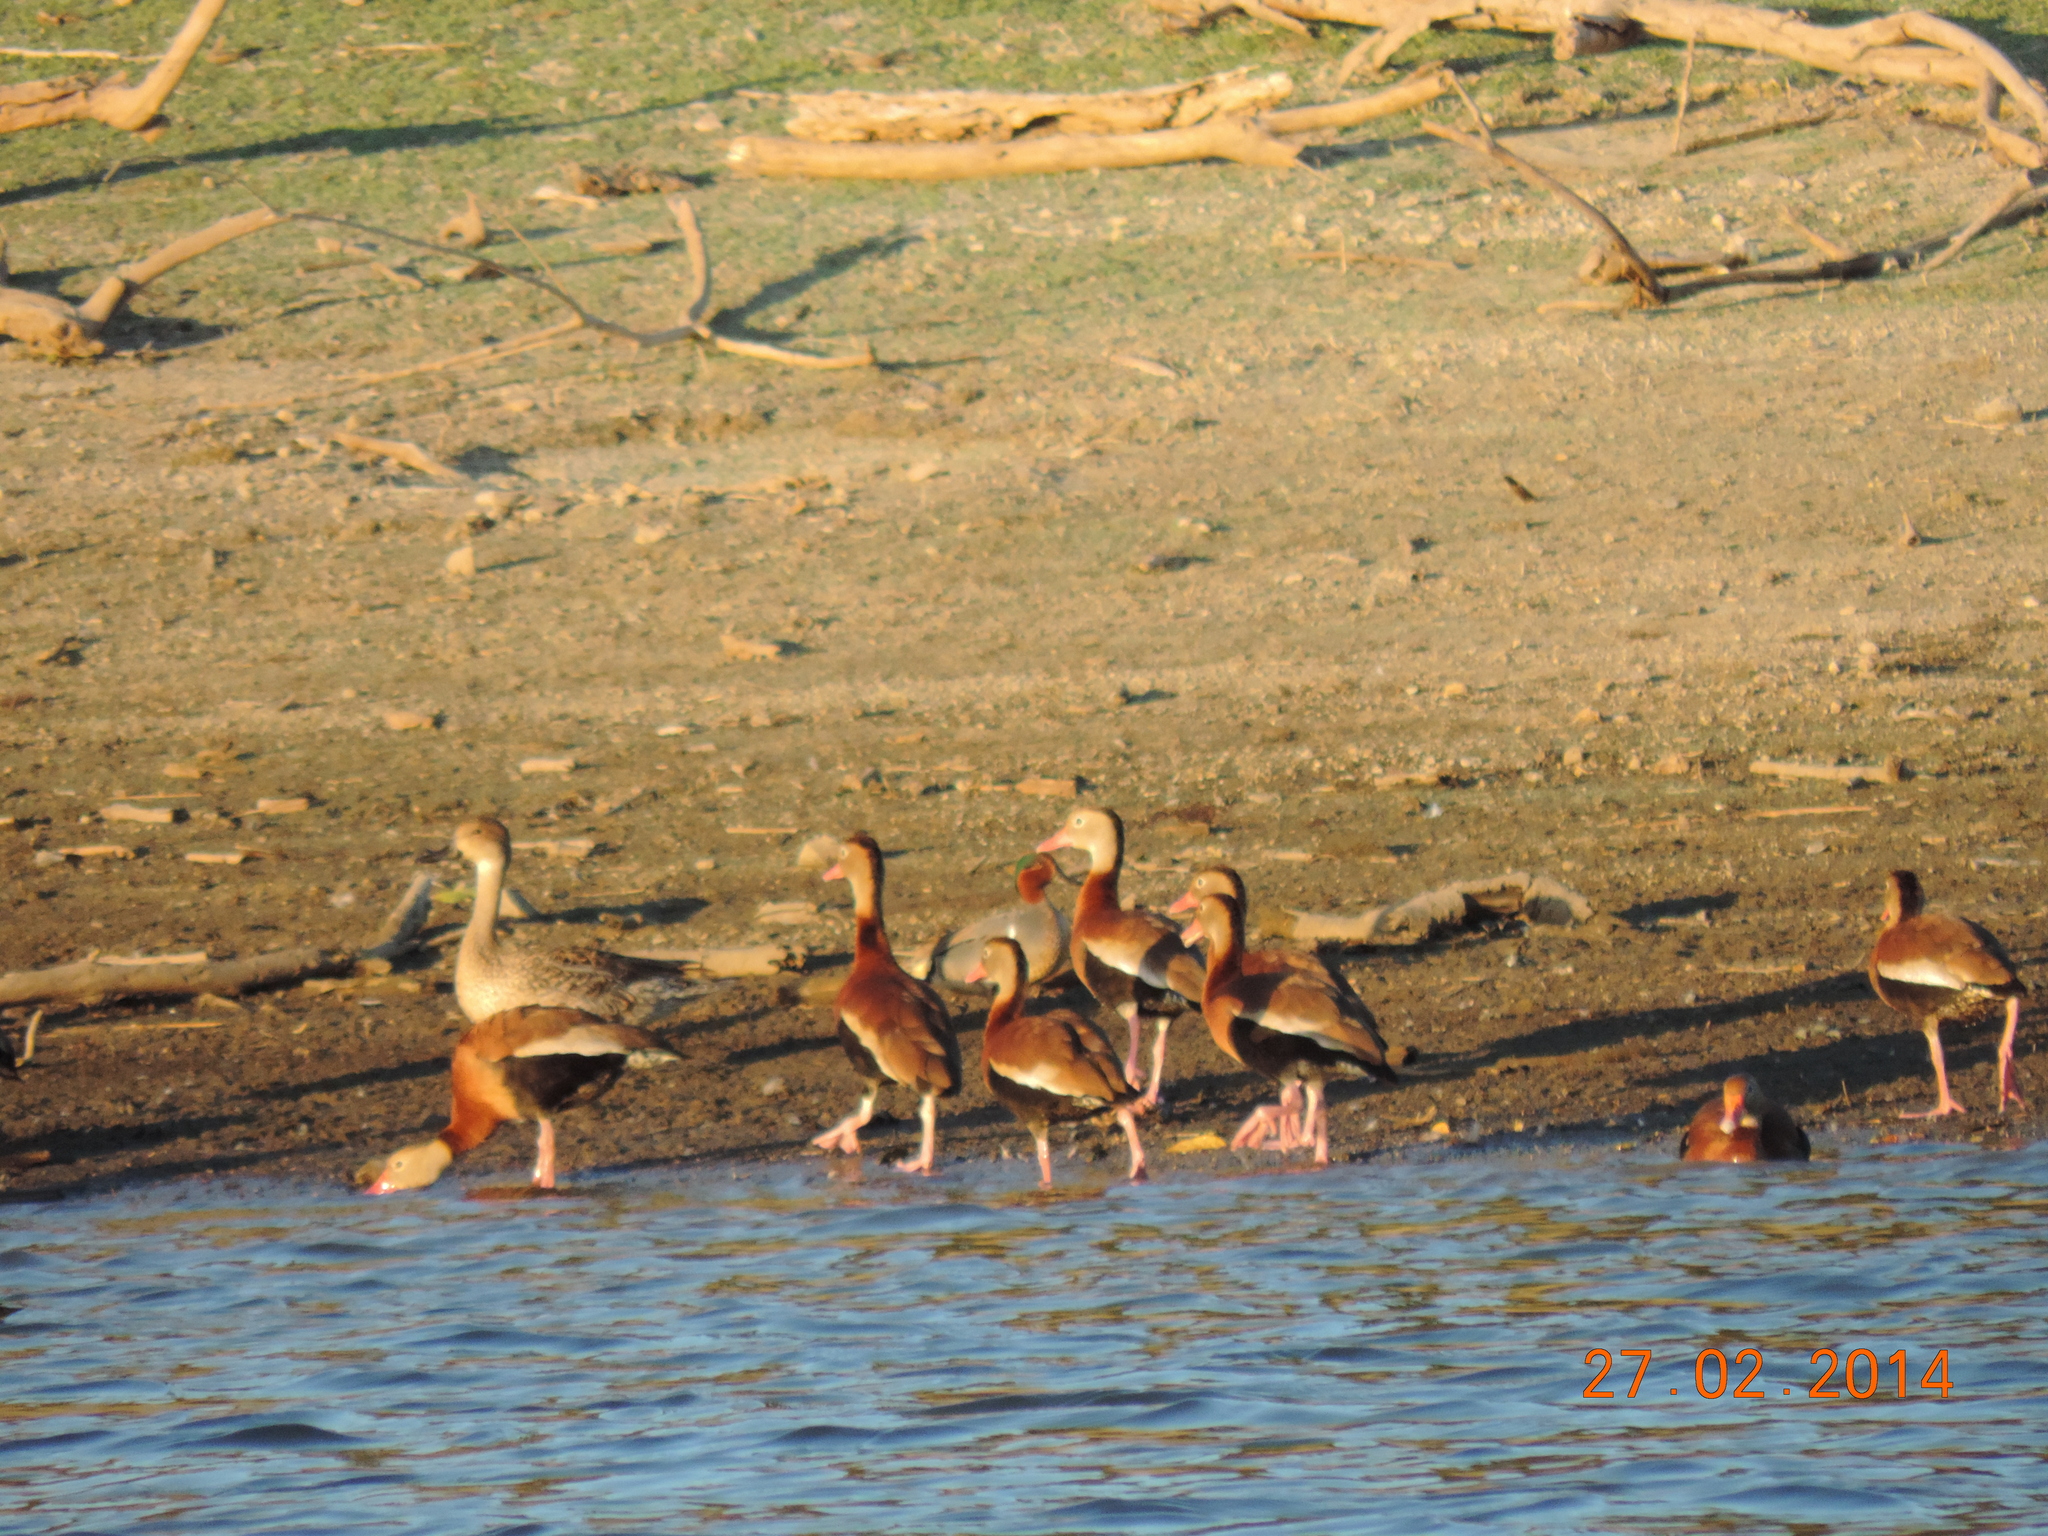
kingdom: Animalia
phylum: Chordata
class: Aves
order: Anseriformes
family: Anatidae
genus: Dendrocygna
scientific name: Dendrocygna autumnalis
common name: Black-bellied whistling duck
